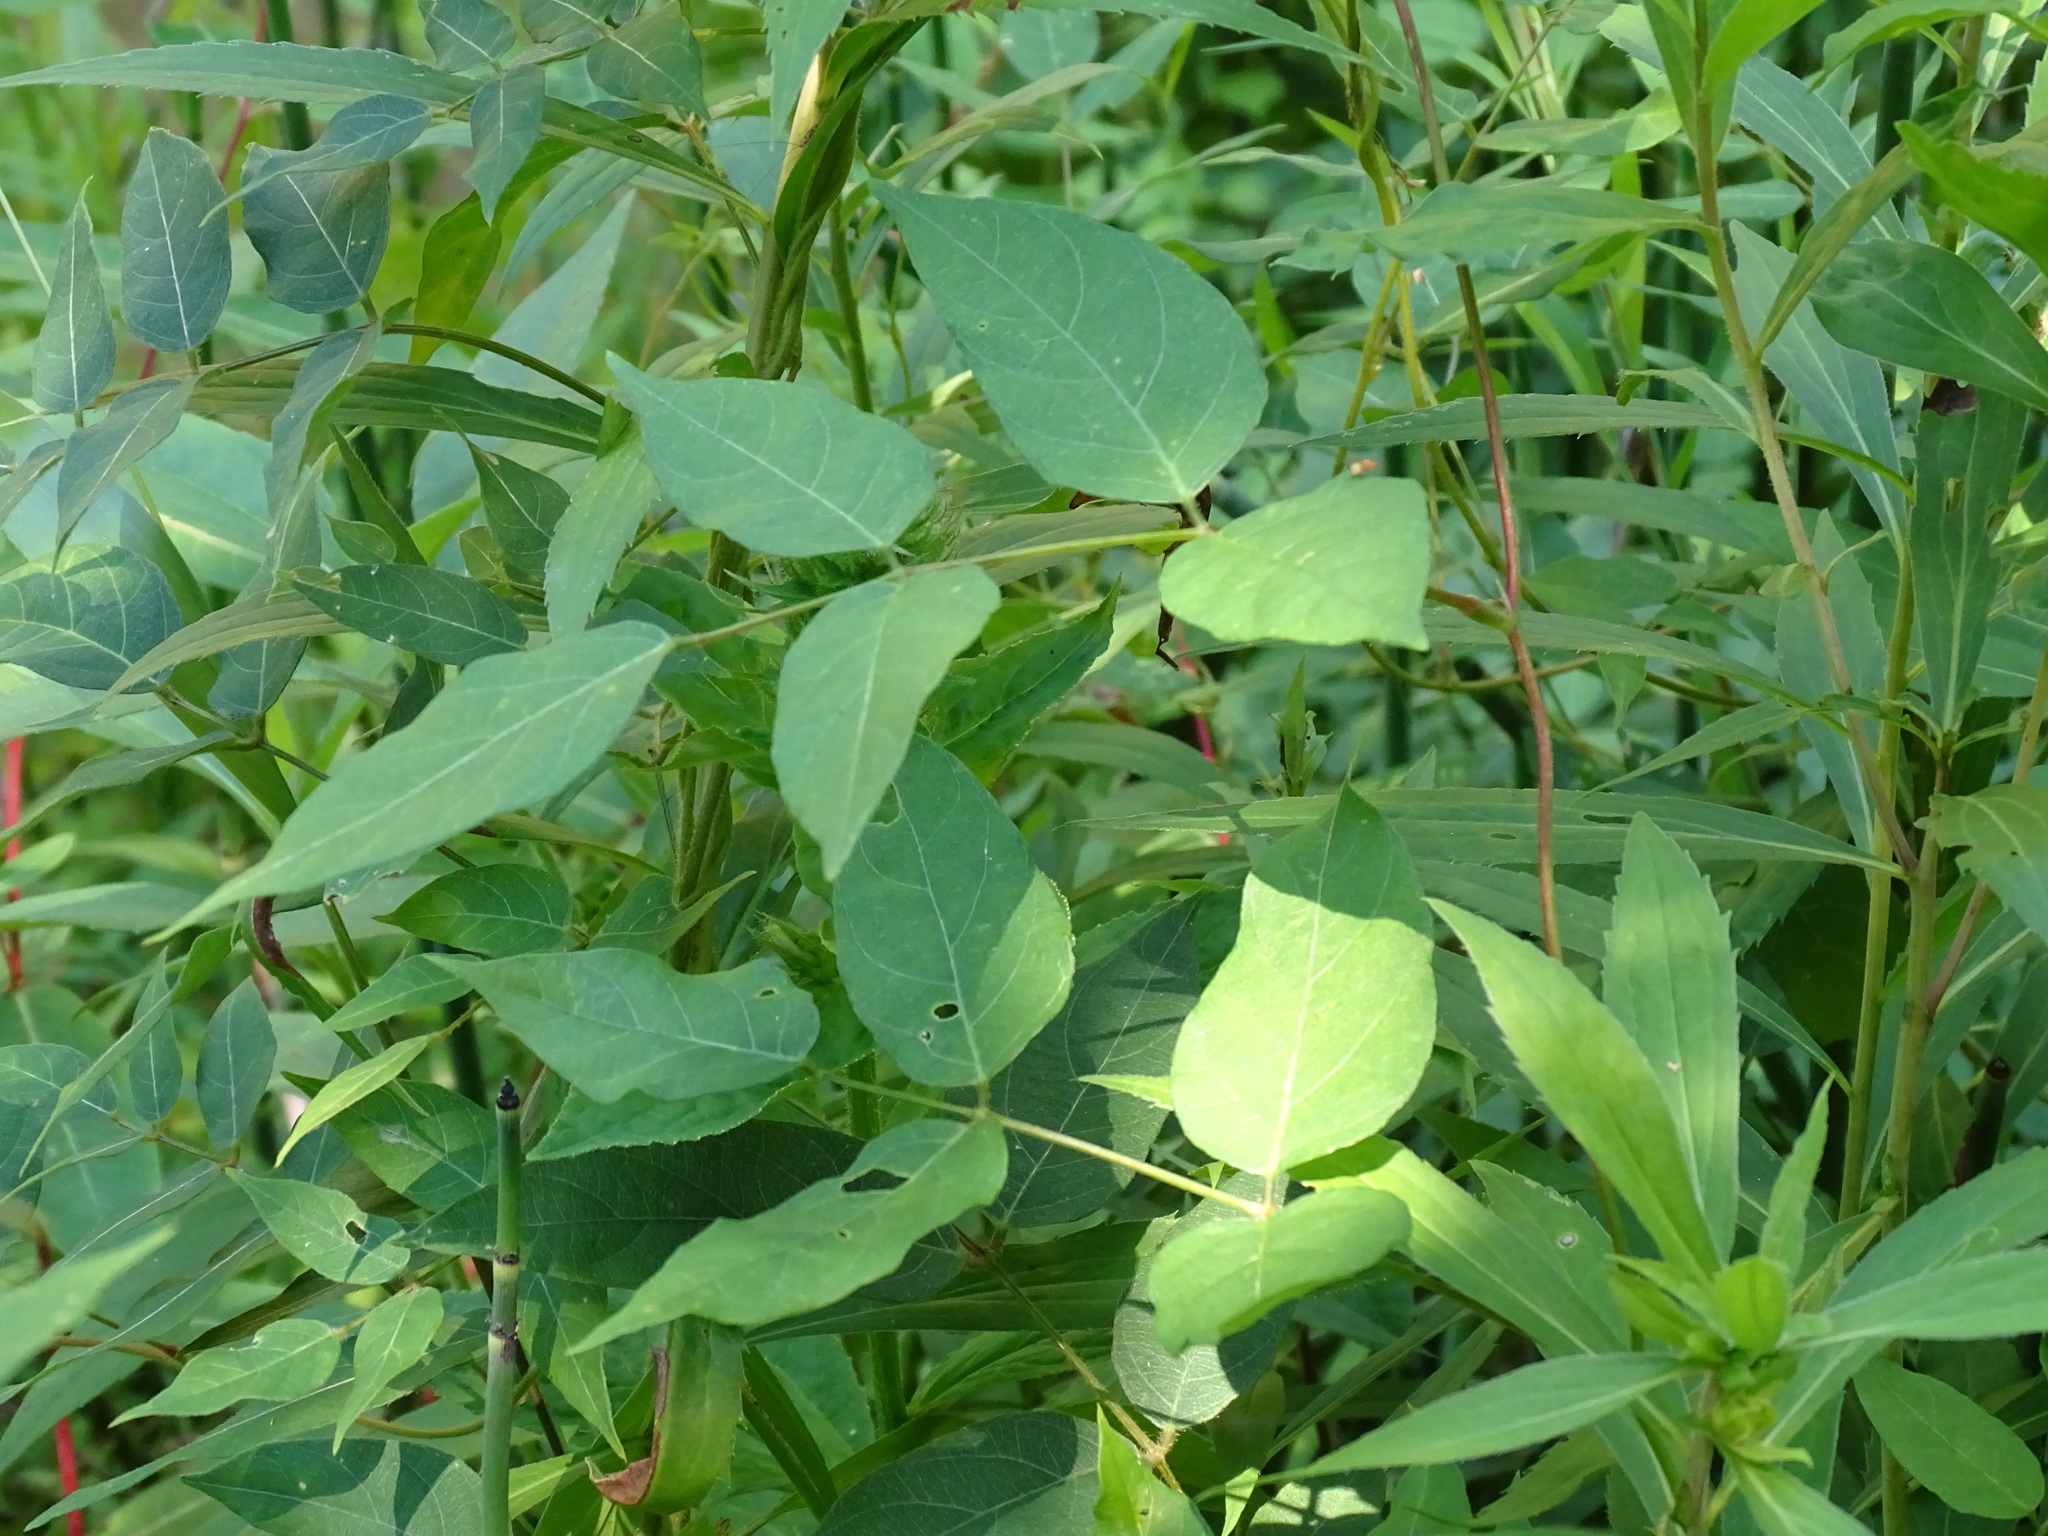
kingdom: Plantae
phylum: Tracheophyta
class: Magnoliopsida
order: Fabales
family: Fabaceae
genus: Apios
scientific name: Apios americana
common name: American potato-bean
